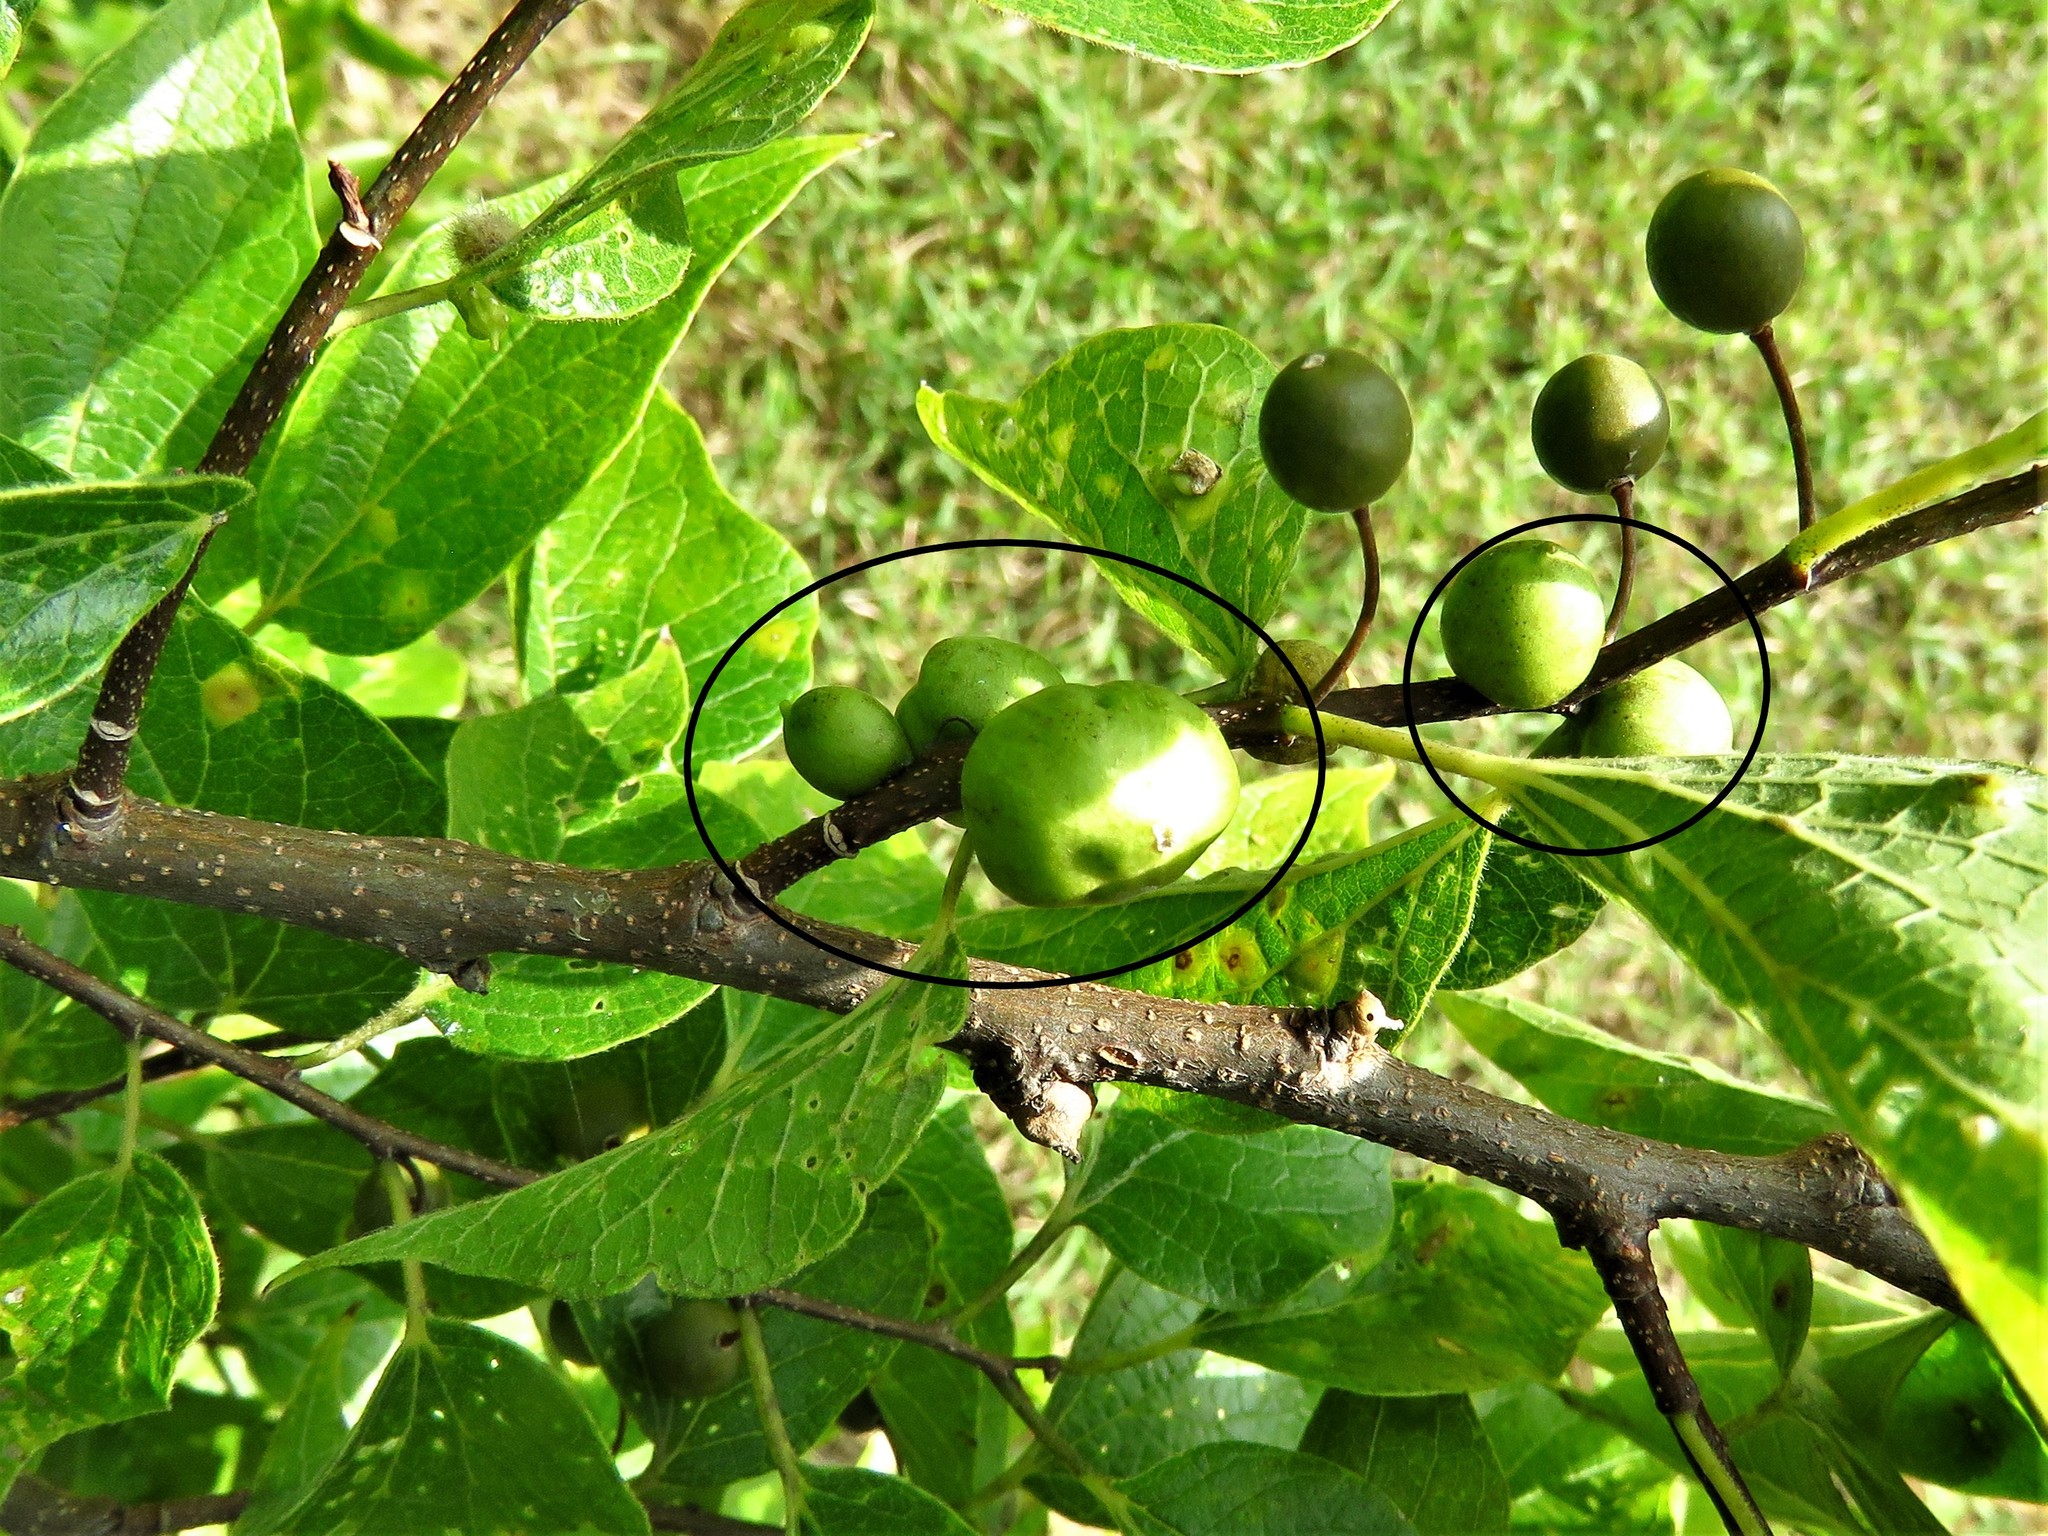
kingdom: Animalia
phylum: Arthropoda
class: Insecta
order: Diptera
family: Cecidomyiidae
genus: Celticecis
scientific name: Celticecis connata
